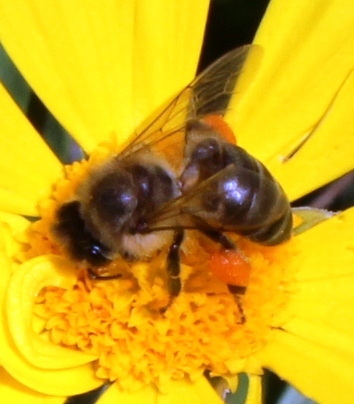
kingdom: Animalia
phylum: Arthropoda
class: Insecta
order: Hymenoptera
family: Apidae
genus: Apis
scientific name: Apis mellifera
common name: Honey bee
